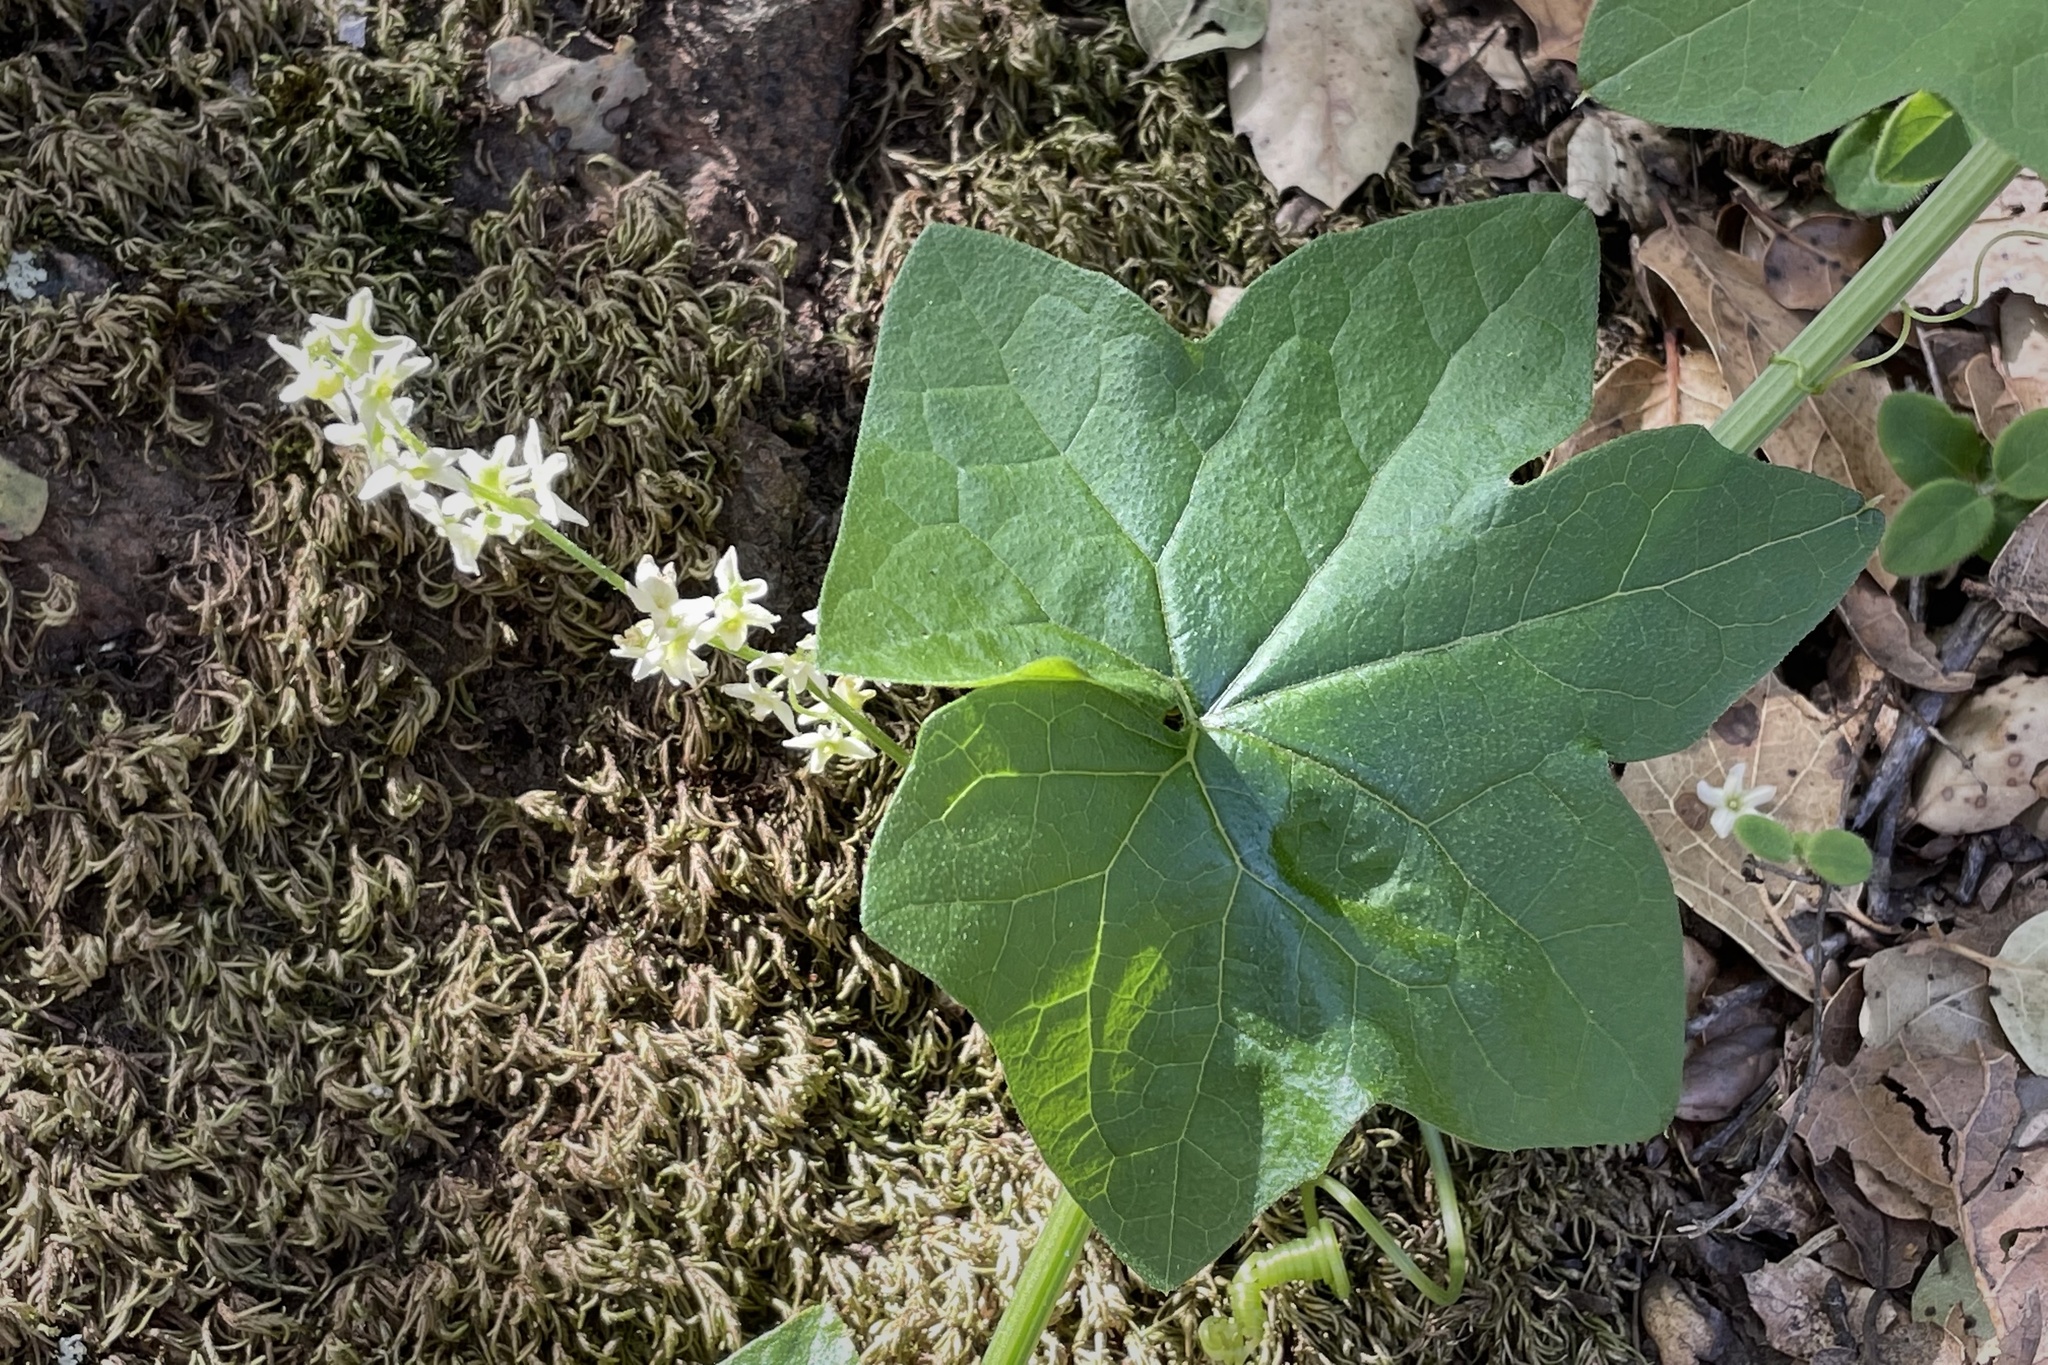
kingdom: Plantae
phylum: Tracheophyta
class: Magnoliopsida
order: Cucurbitales
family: Cucurbitaceae
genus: Marah
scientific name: Marah fabacea
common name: California manroot
